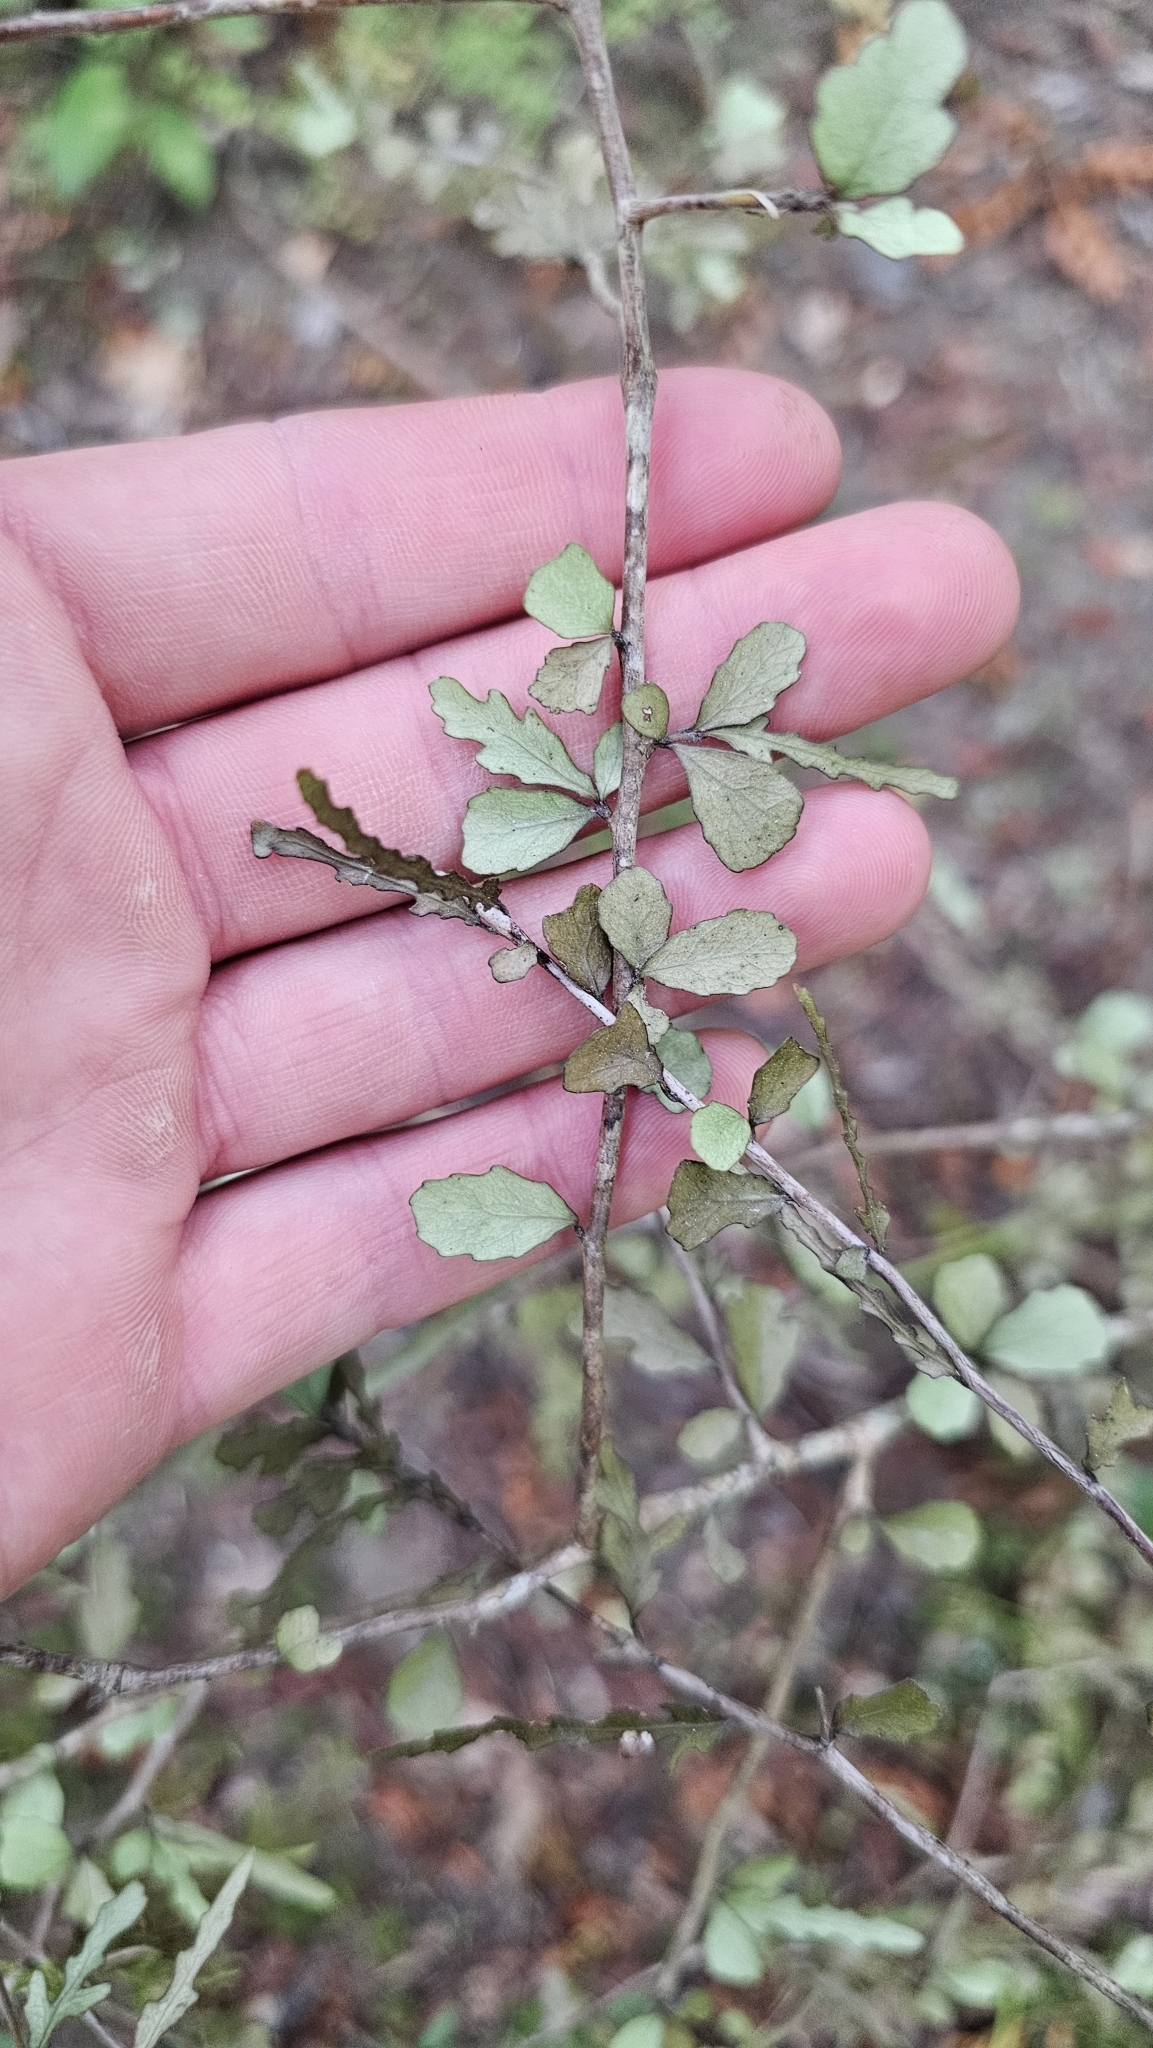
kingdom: Plantae
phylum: Tracheophyta
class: Magnoliopsida
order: Oxalidales
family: Elaeocarpaceae
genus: Elaeocarpus
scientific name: Elaeocarpus hookerianus
